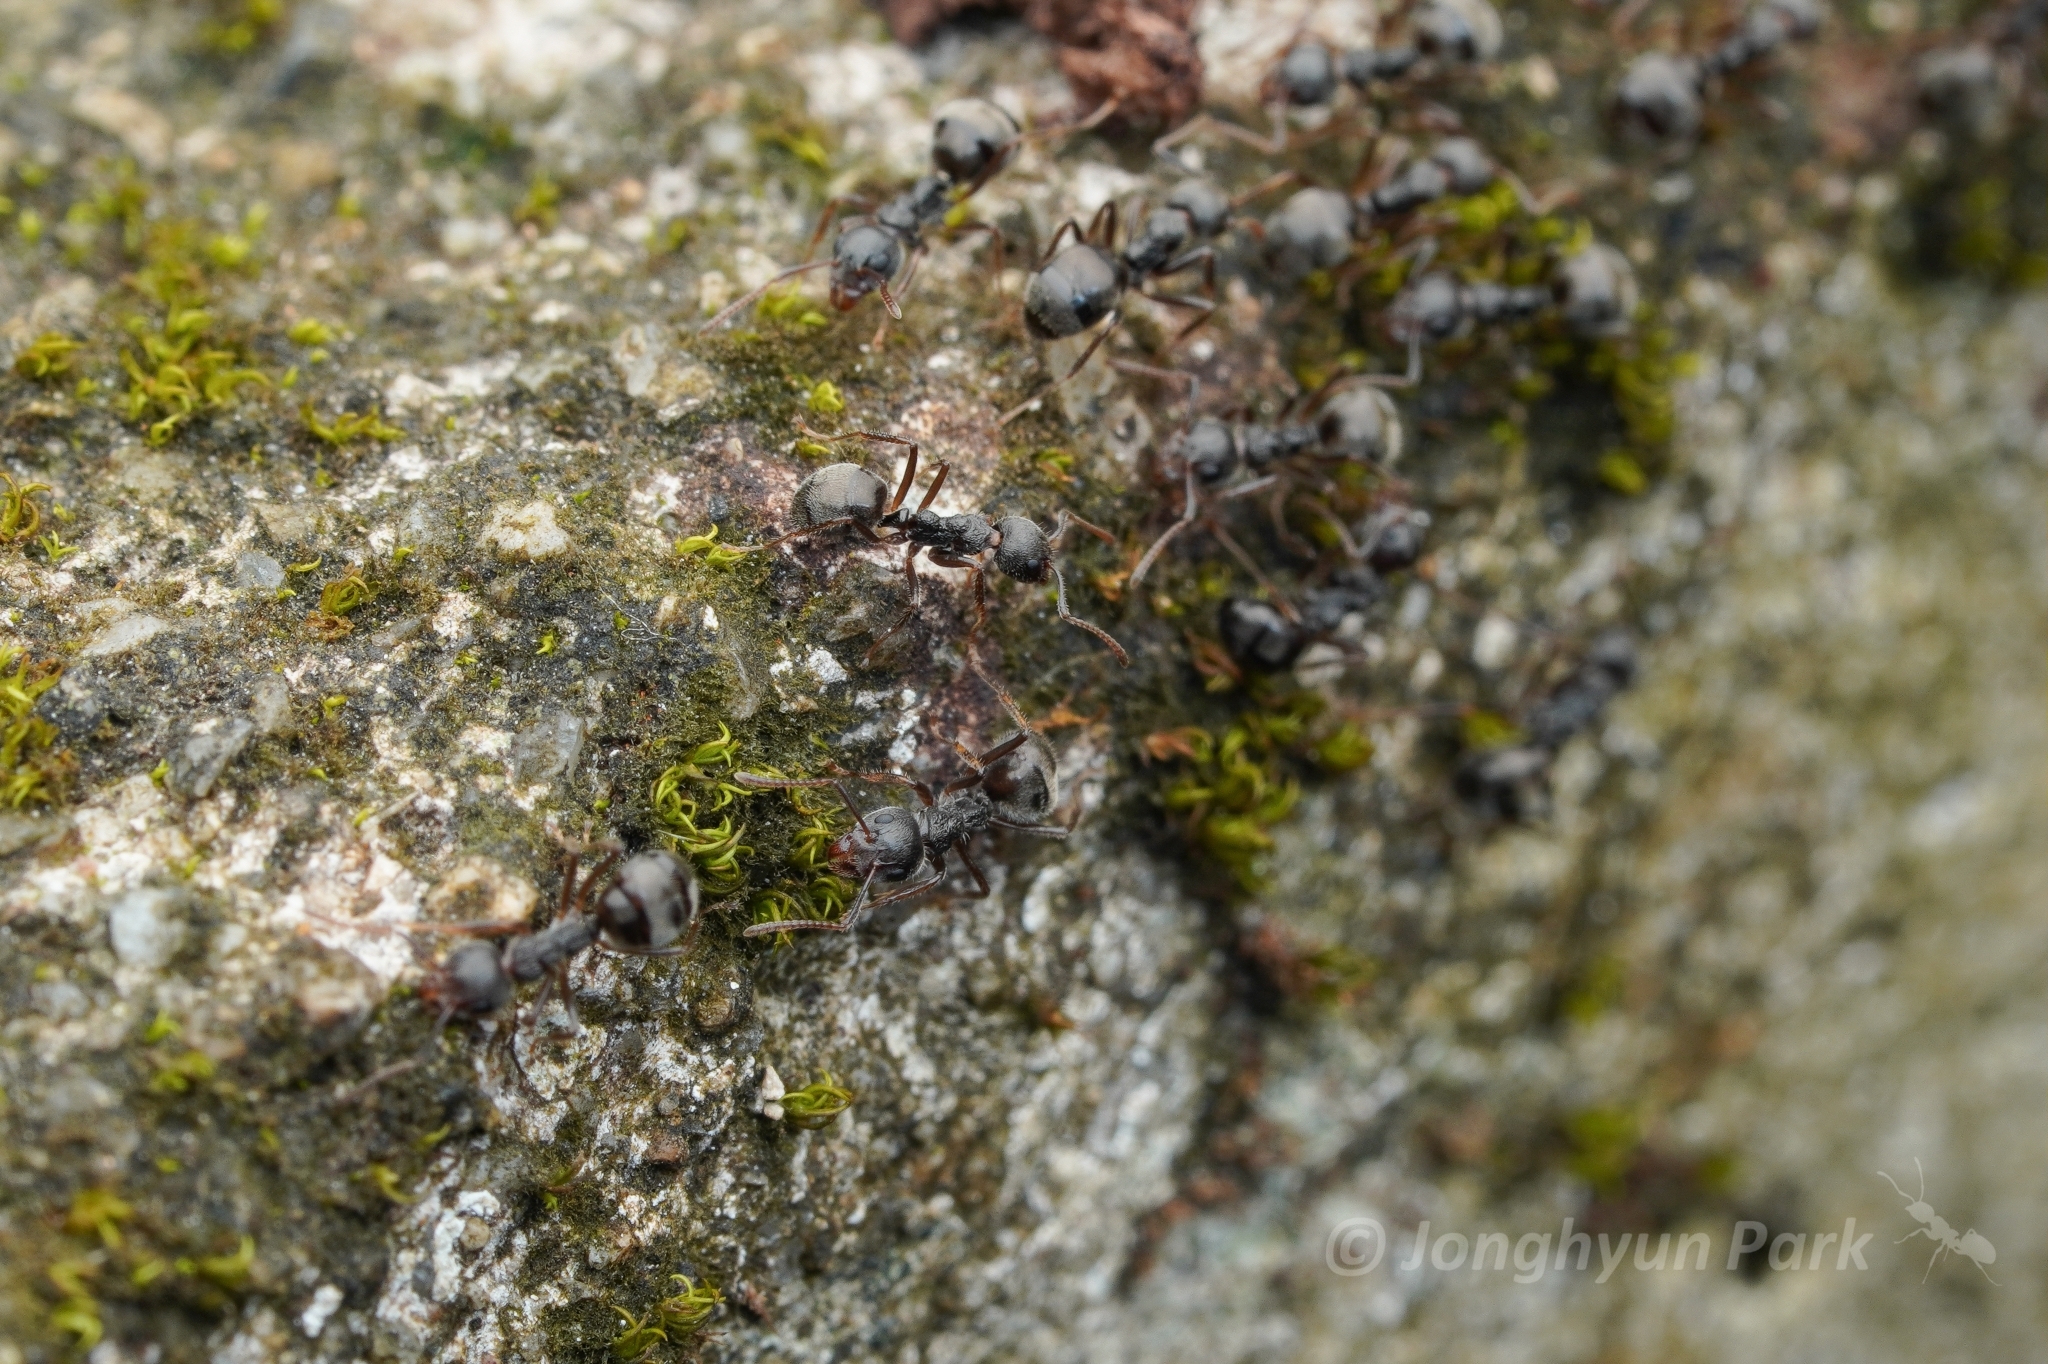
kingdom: Animalia
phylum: Arthropoda
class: Insecta
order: Hymenoptera
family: Formicidae
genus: Dolichoderus
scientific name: Dolichoderus thoracicus
